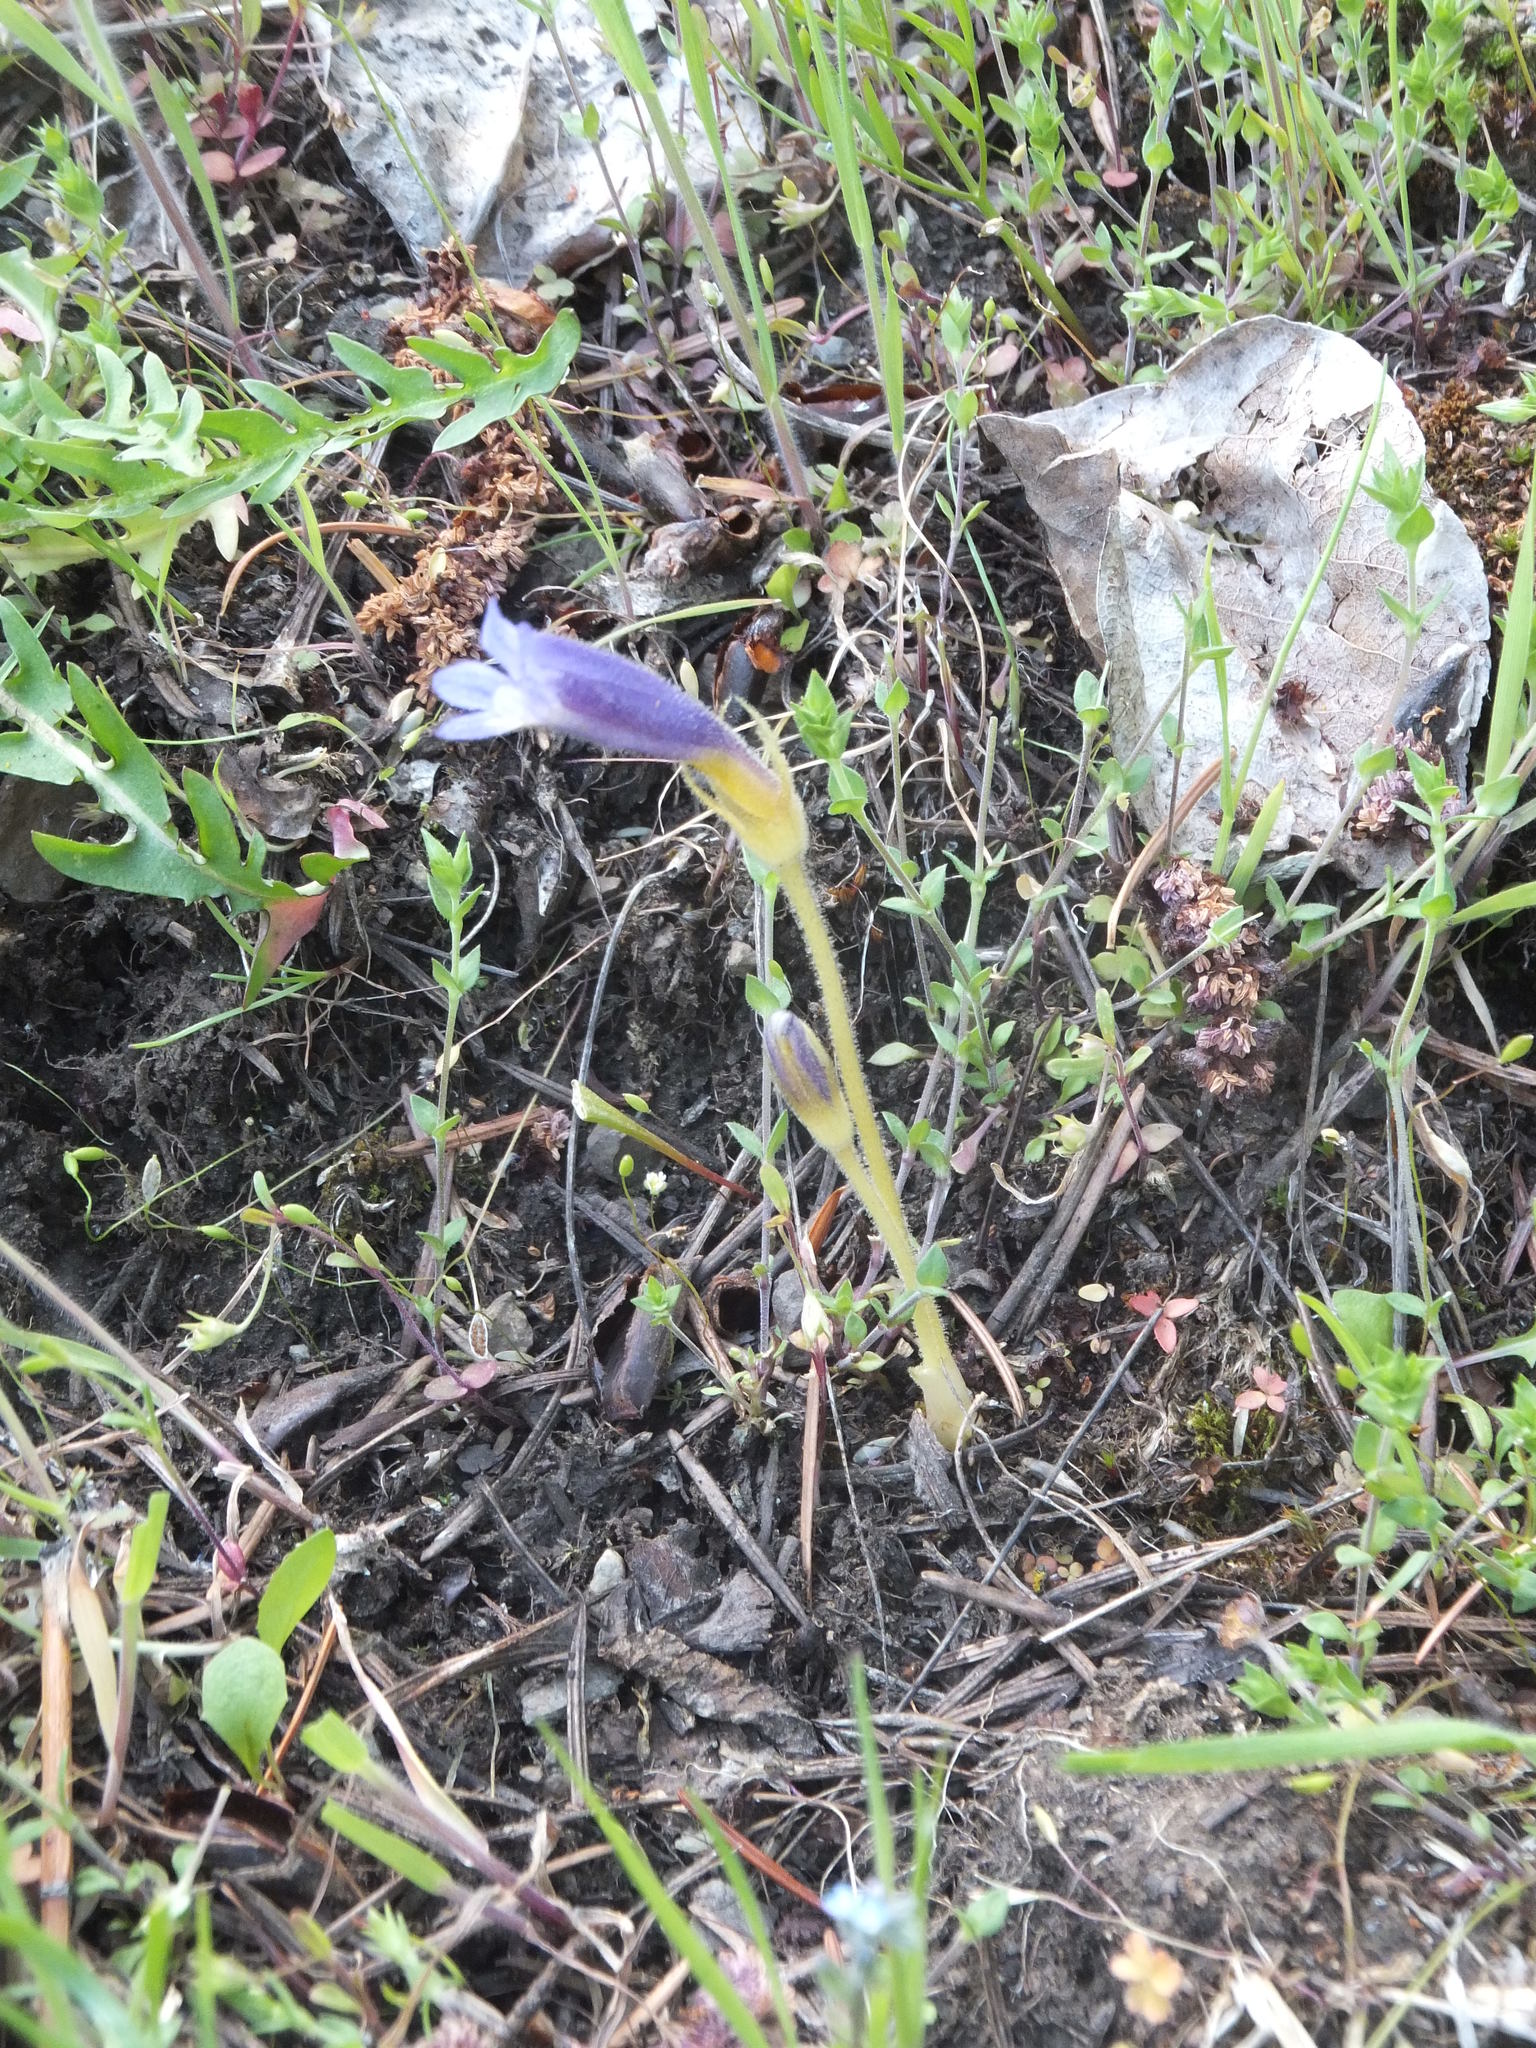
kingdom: Plantae
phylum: Tracheophyta
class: Magnoliopsida
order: Lamiales
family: Orobanchaceae
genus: Aphyllon
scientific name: Aphyllon uniflorum
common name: One-flowered broomrape
